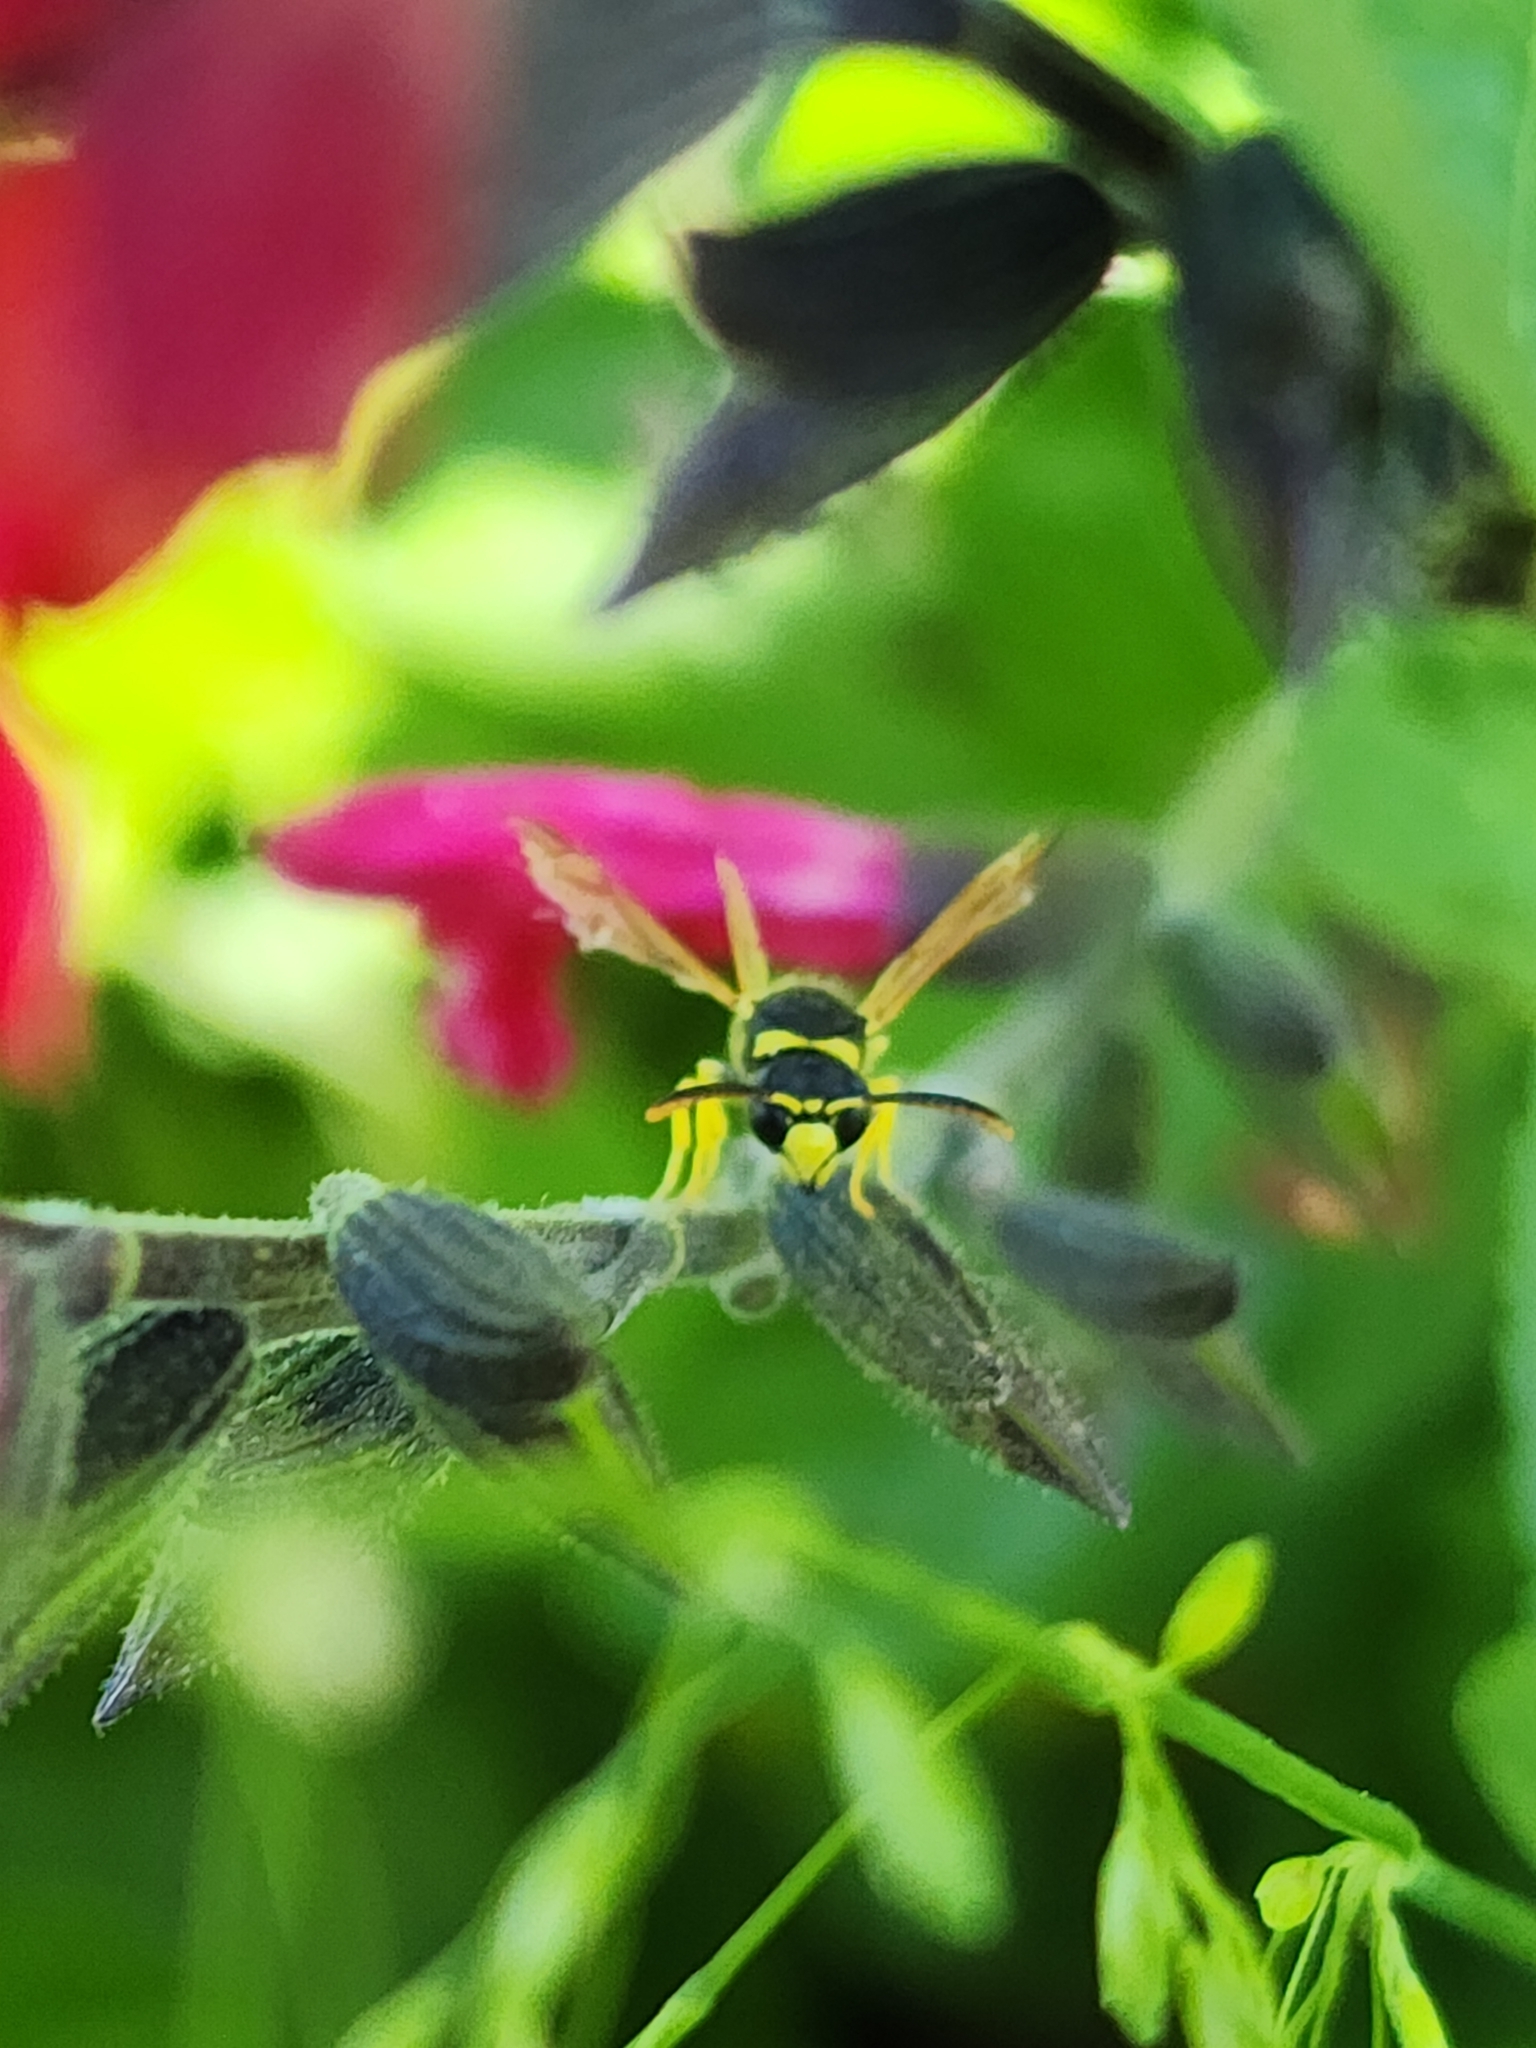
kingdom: Animalia
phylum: Arthropoda
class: Insecta
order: Hymenoptera
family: Eumenidae
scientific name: Eumenidae
